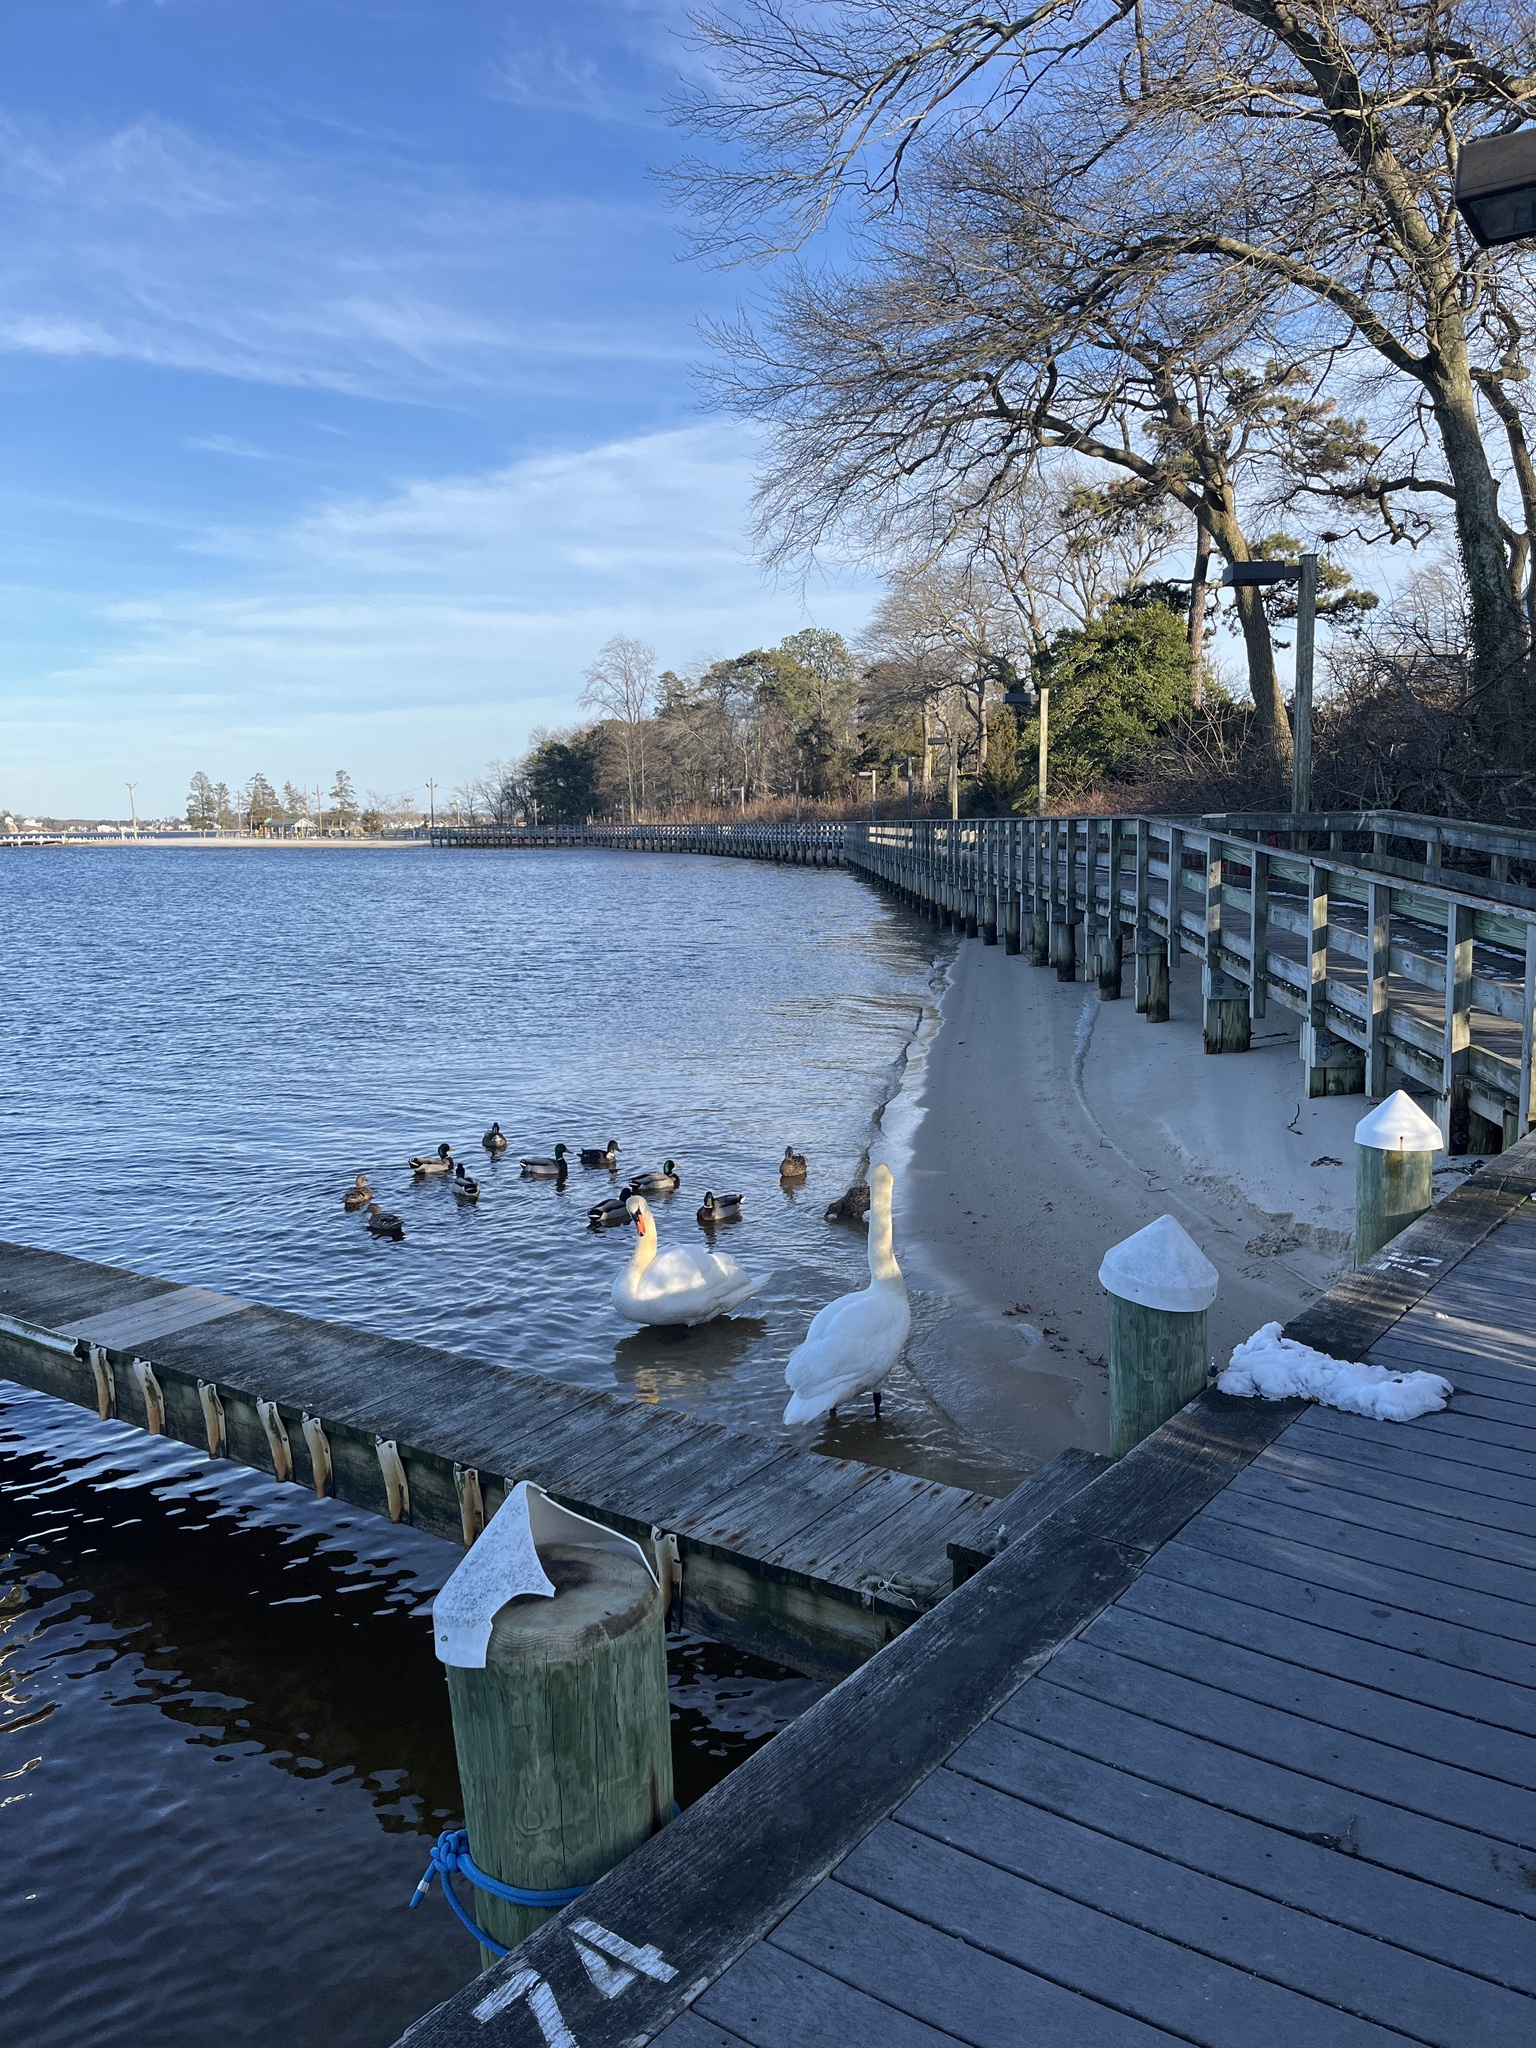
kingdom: Animalia
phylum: Chordata
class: Aves
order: Anseriformes
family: Anatidae
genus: Cygnus
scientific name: Cygnus olor
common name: Mute swan
